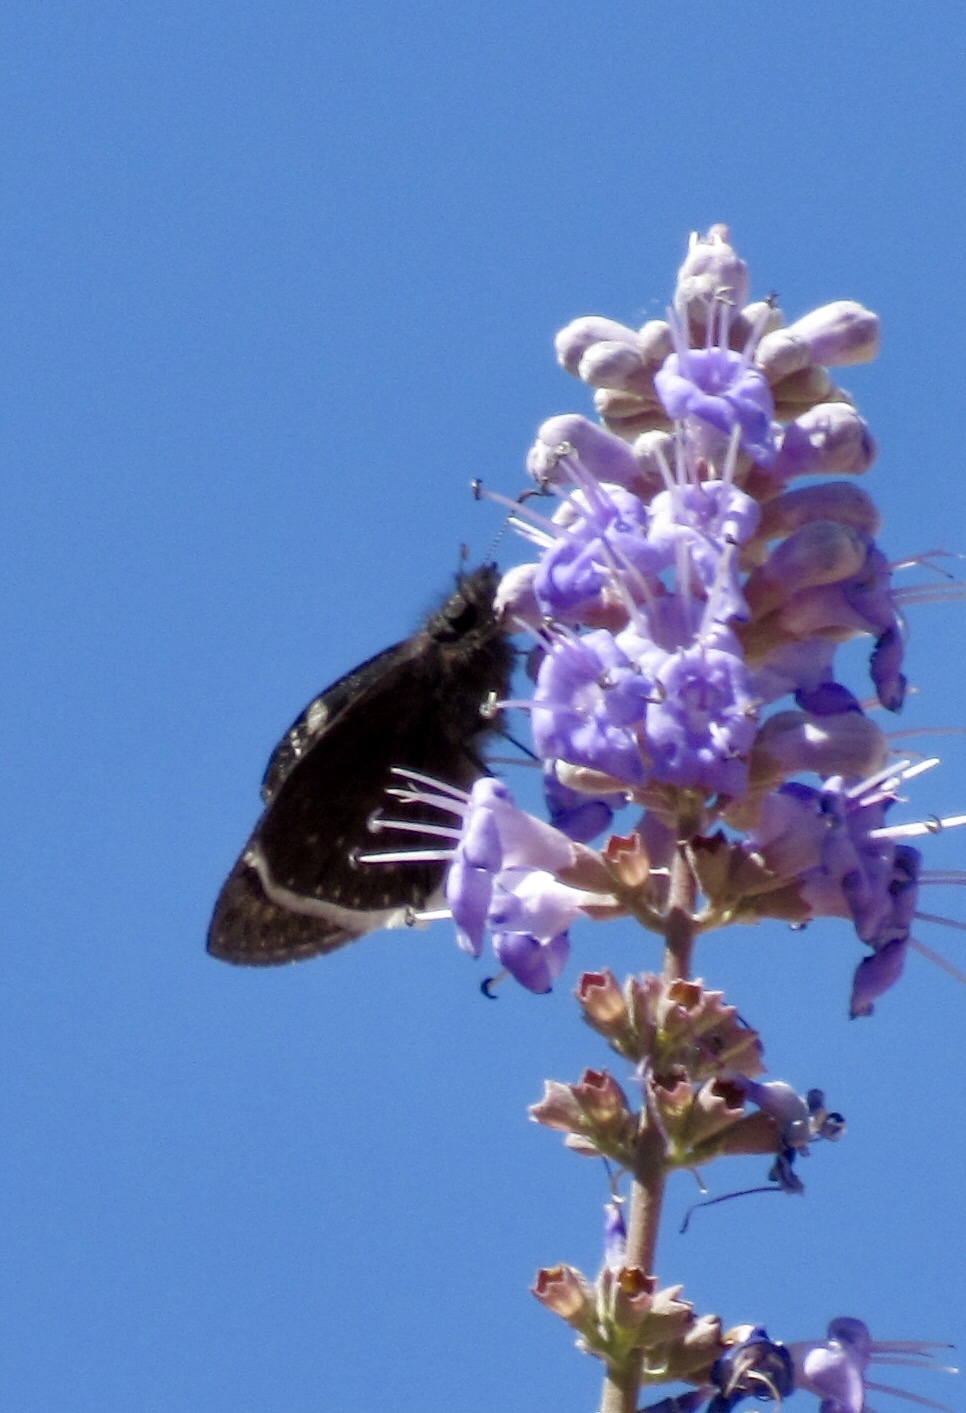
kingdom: Animalia
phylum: Arthropoda
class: Insecta
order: Lepidoptera
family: Hesperiidae
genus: Erynnis
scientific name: Erynnis funeralis
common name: Funereal duskywing
